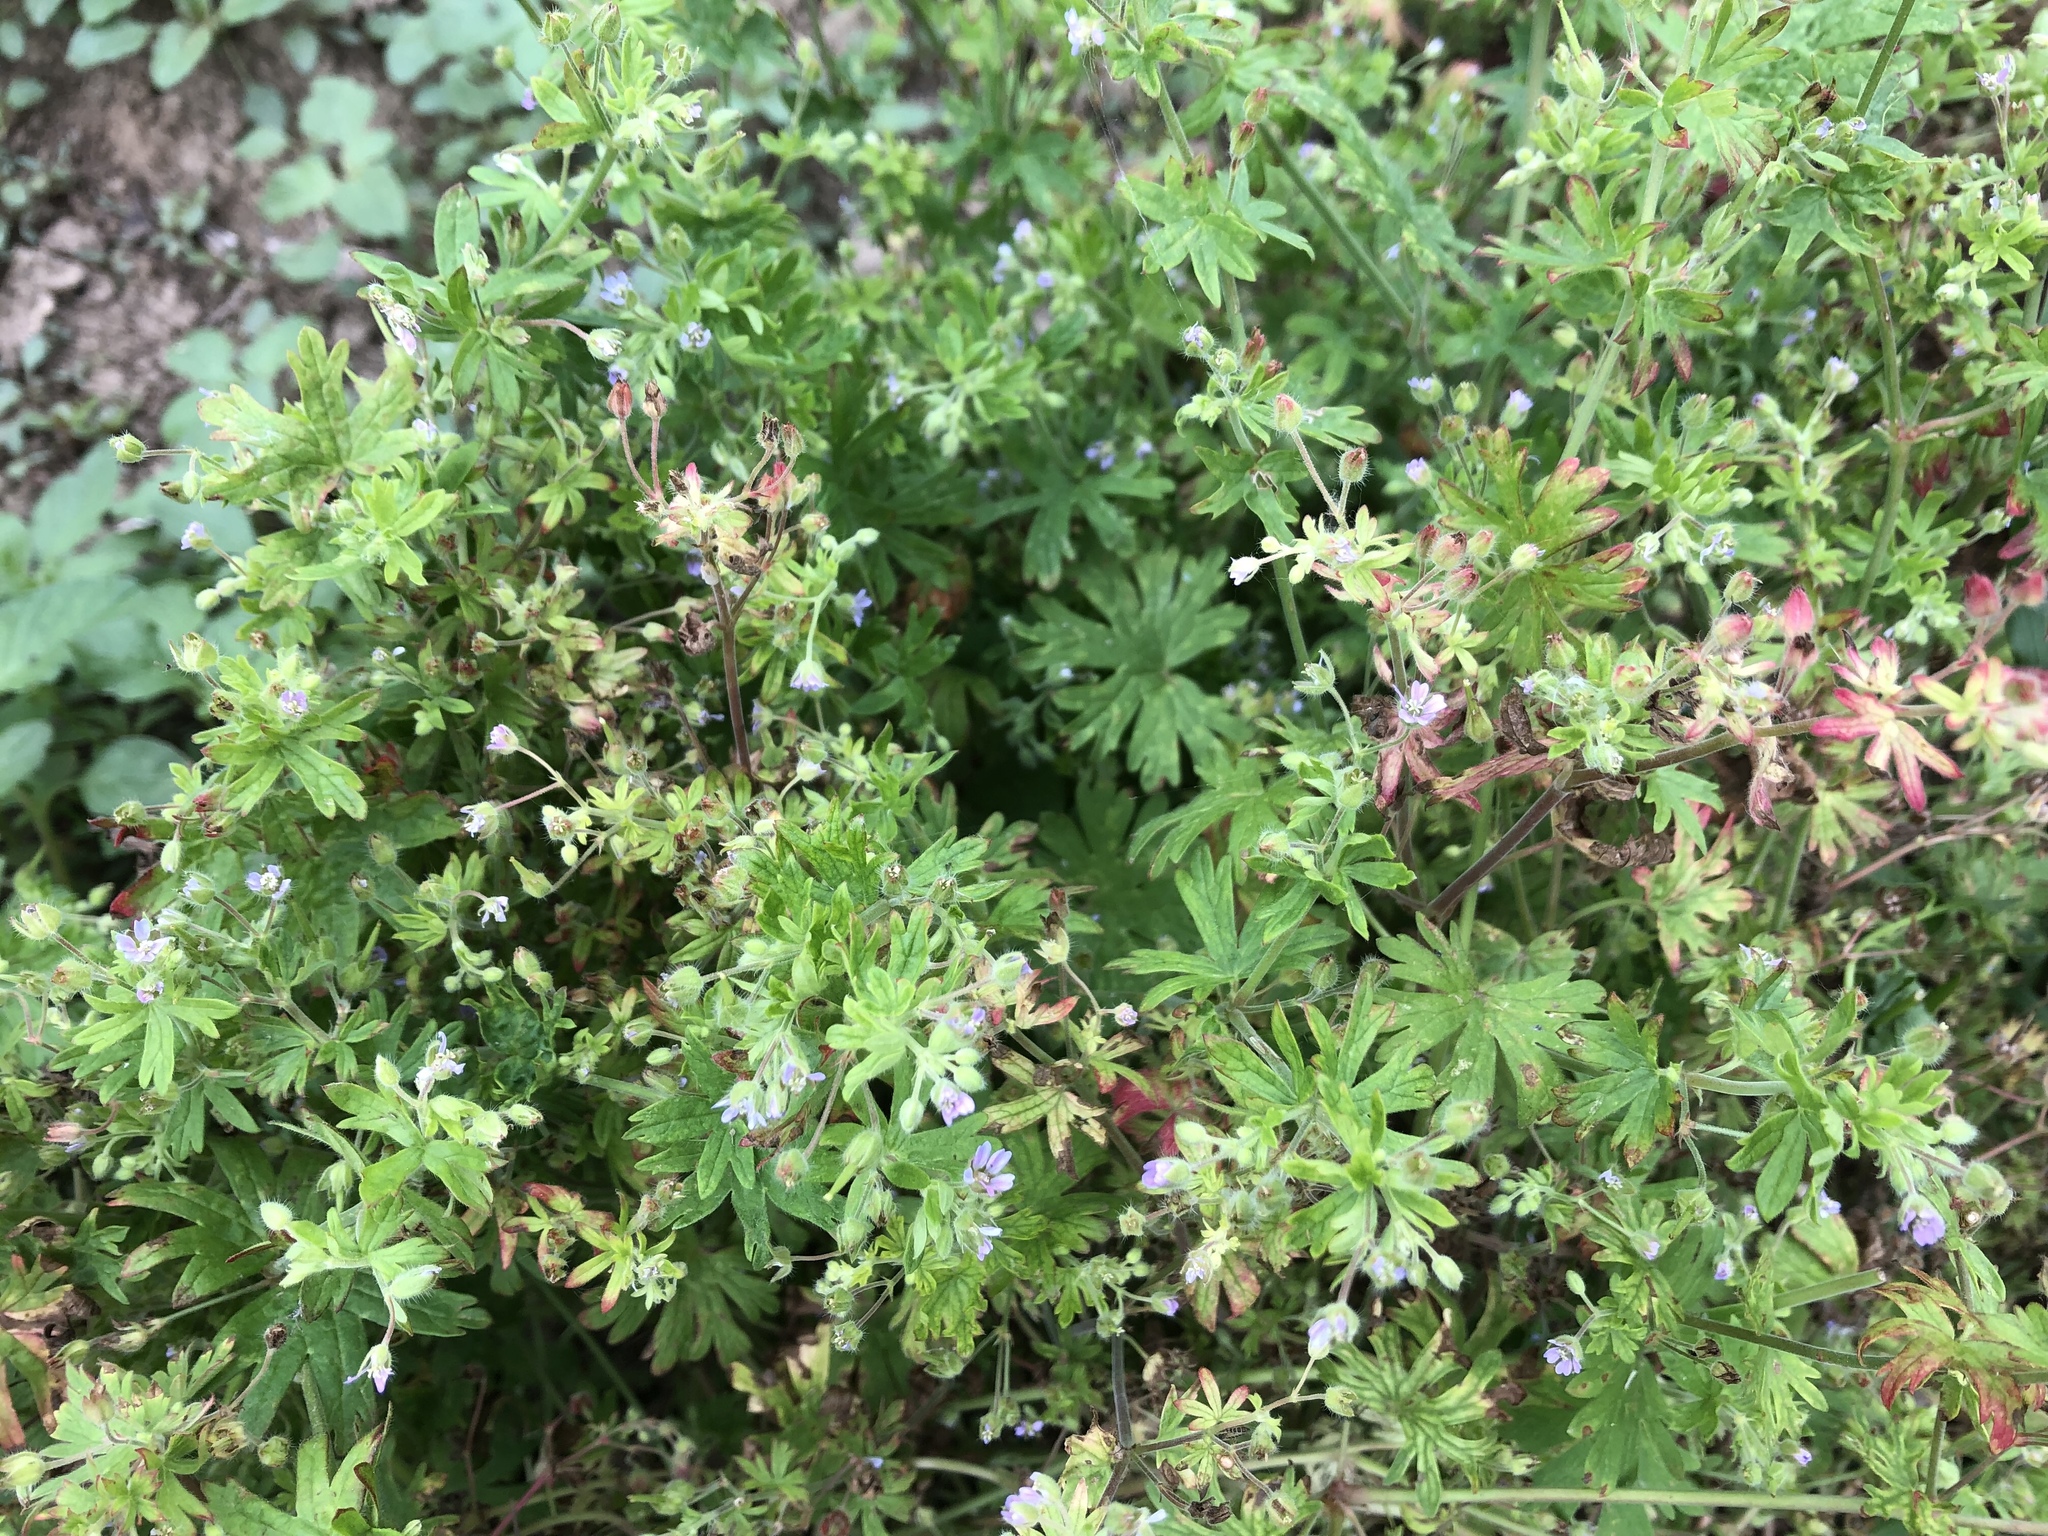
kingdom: Plantae
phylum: Tracheophyta
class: Magnoliopsida
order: Geraniales
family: Geraniaceae
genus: Geranium
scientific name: Geranium pusillum
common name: Small geranium
